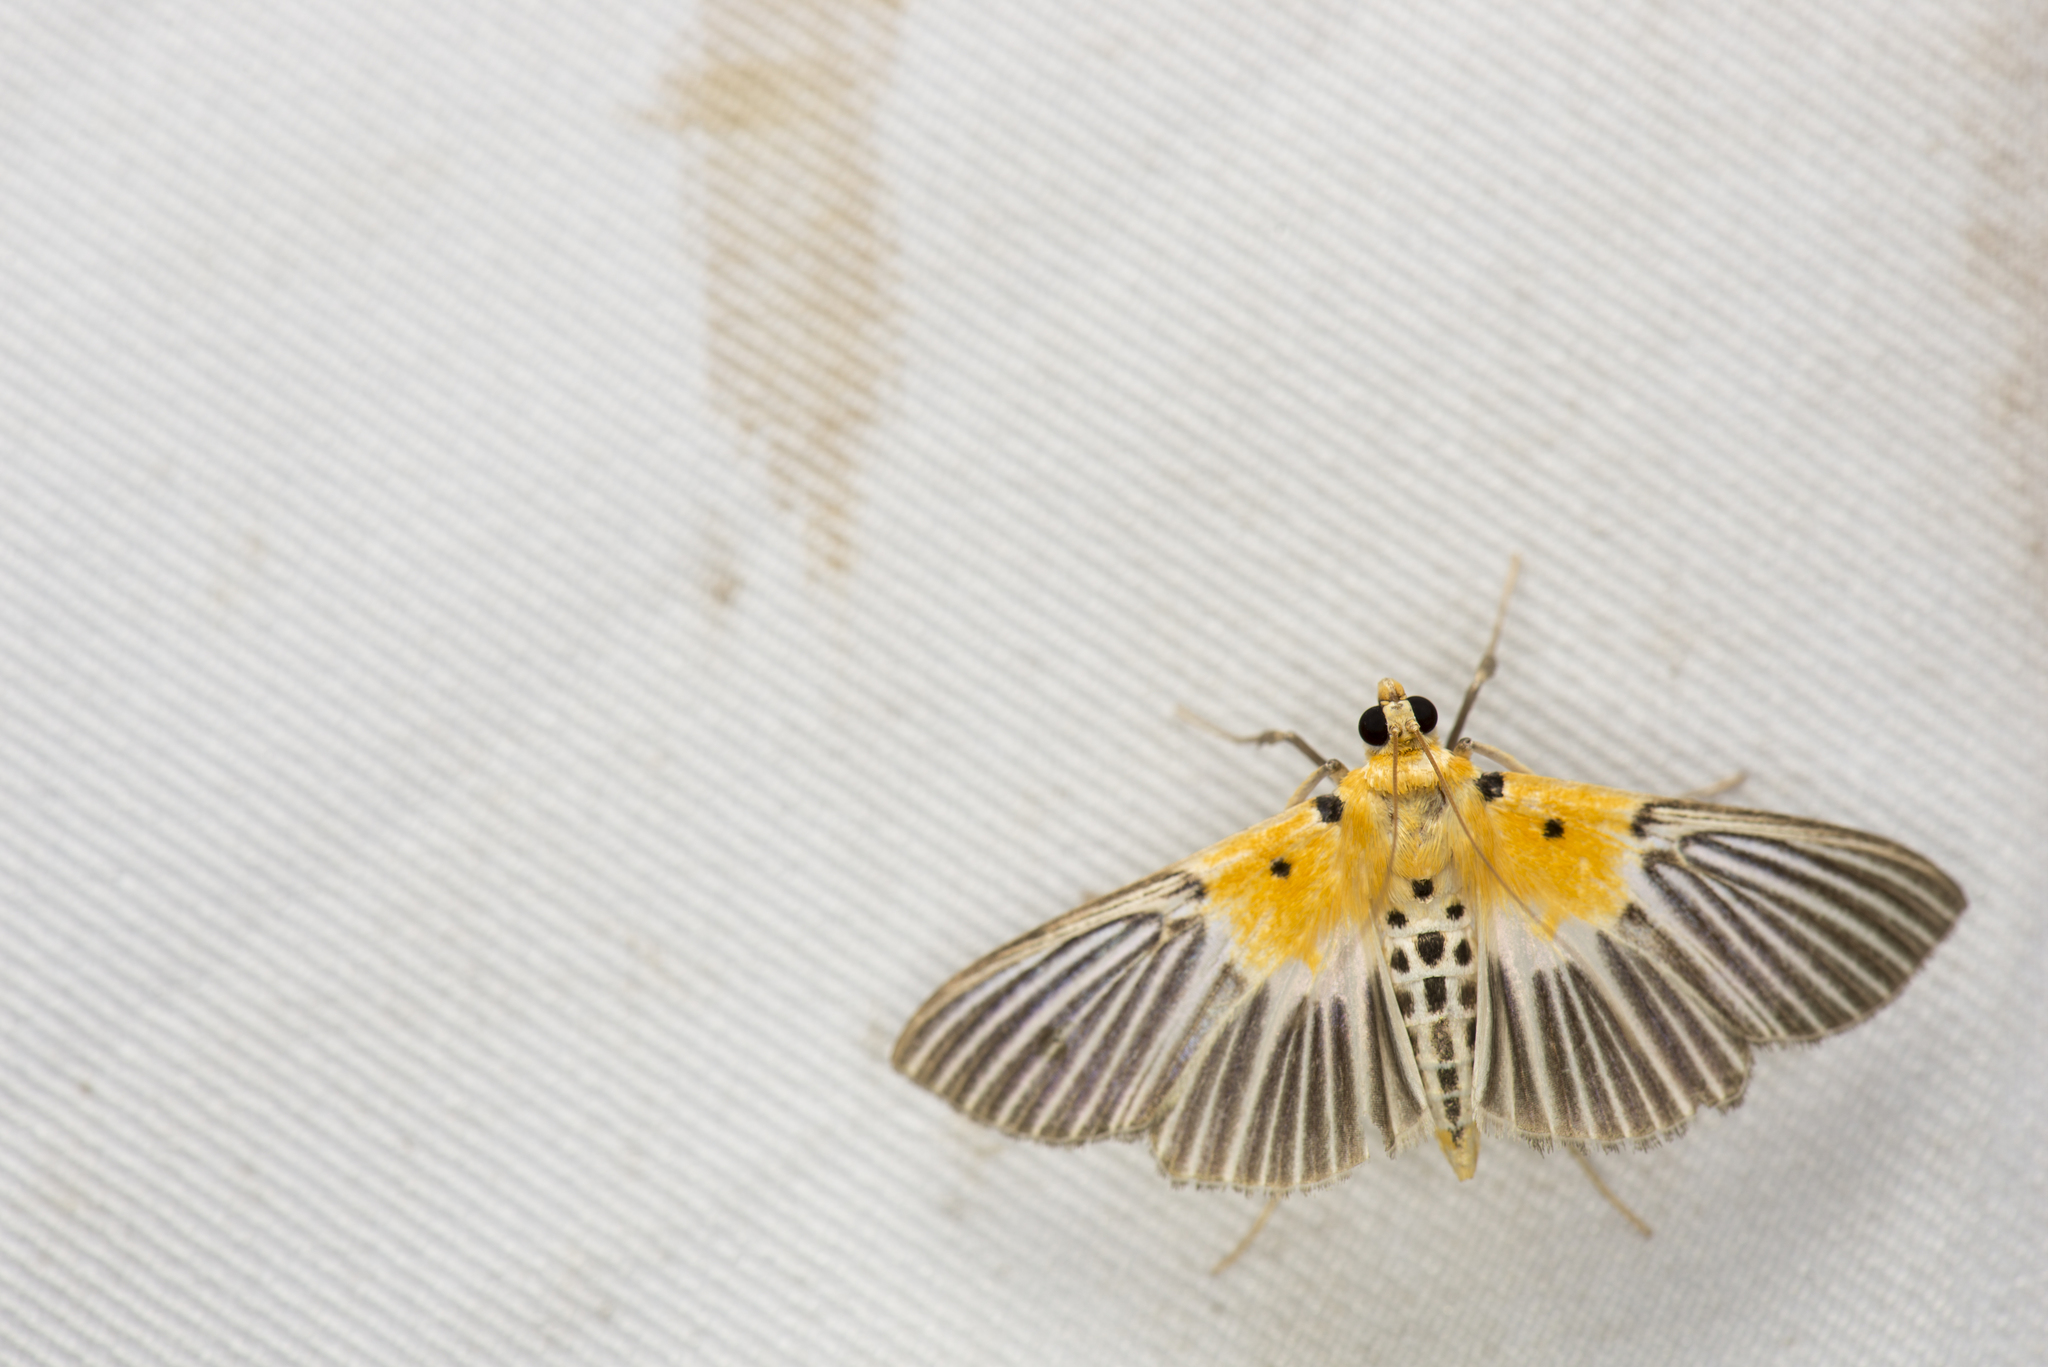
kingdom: Animalia
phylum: Arthropoda
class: Insecta
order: Lepidoptera
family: Crambidae
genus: Nevrina
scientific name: Nevrina procopia
